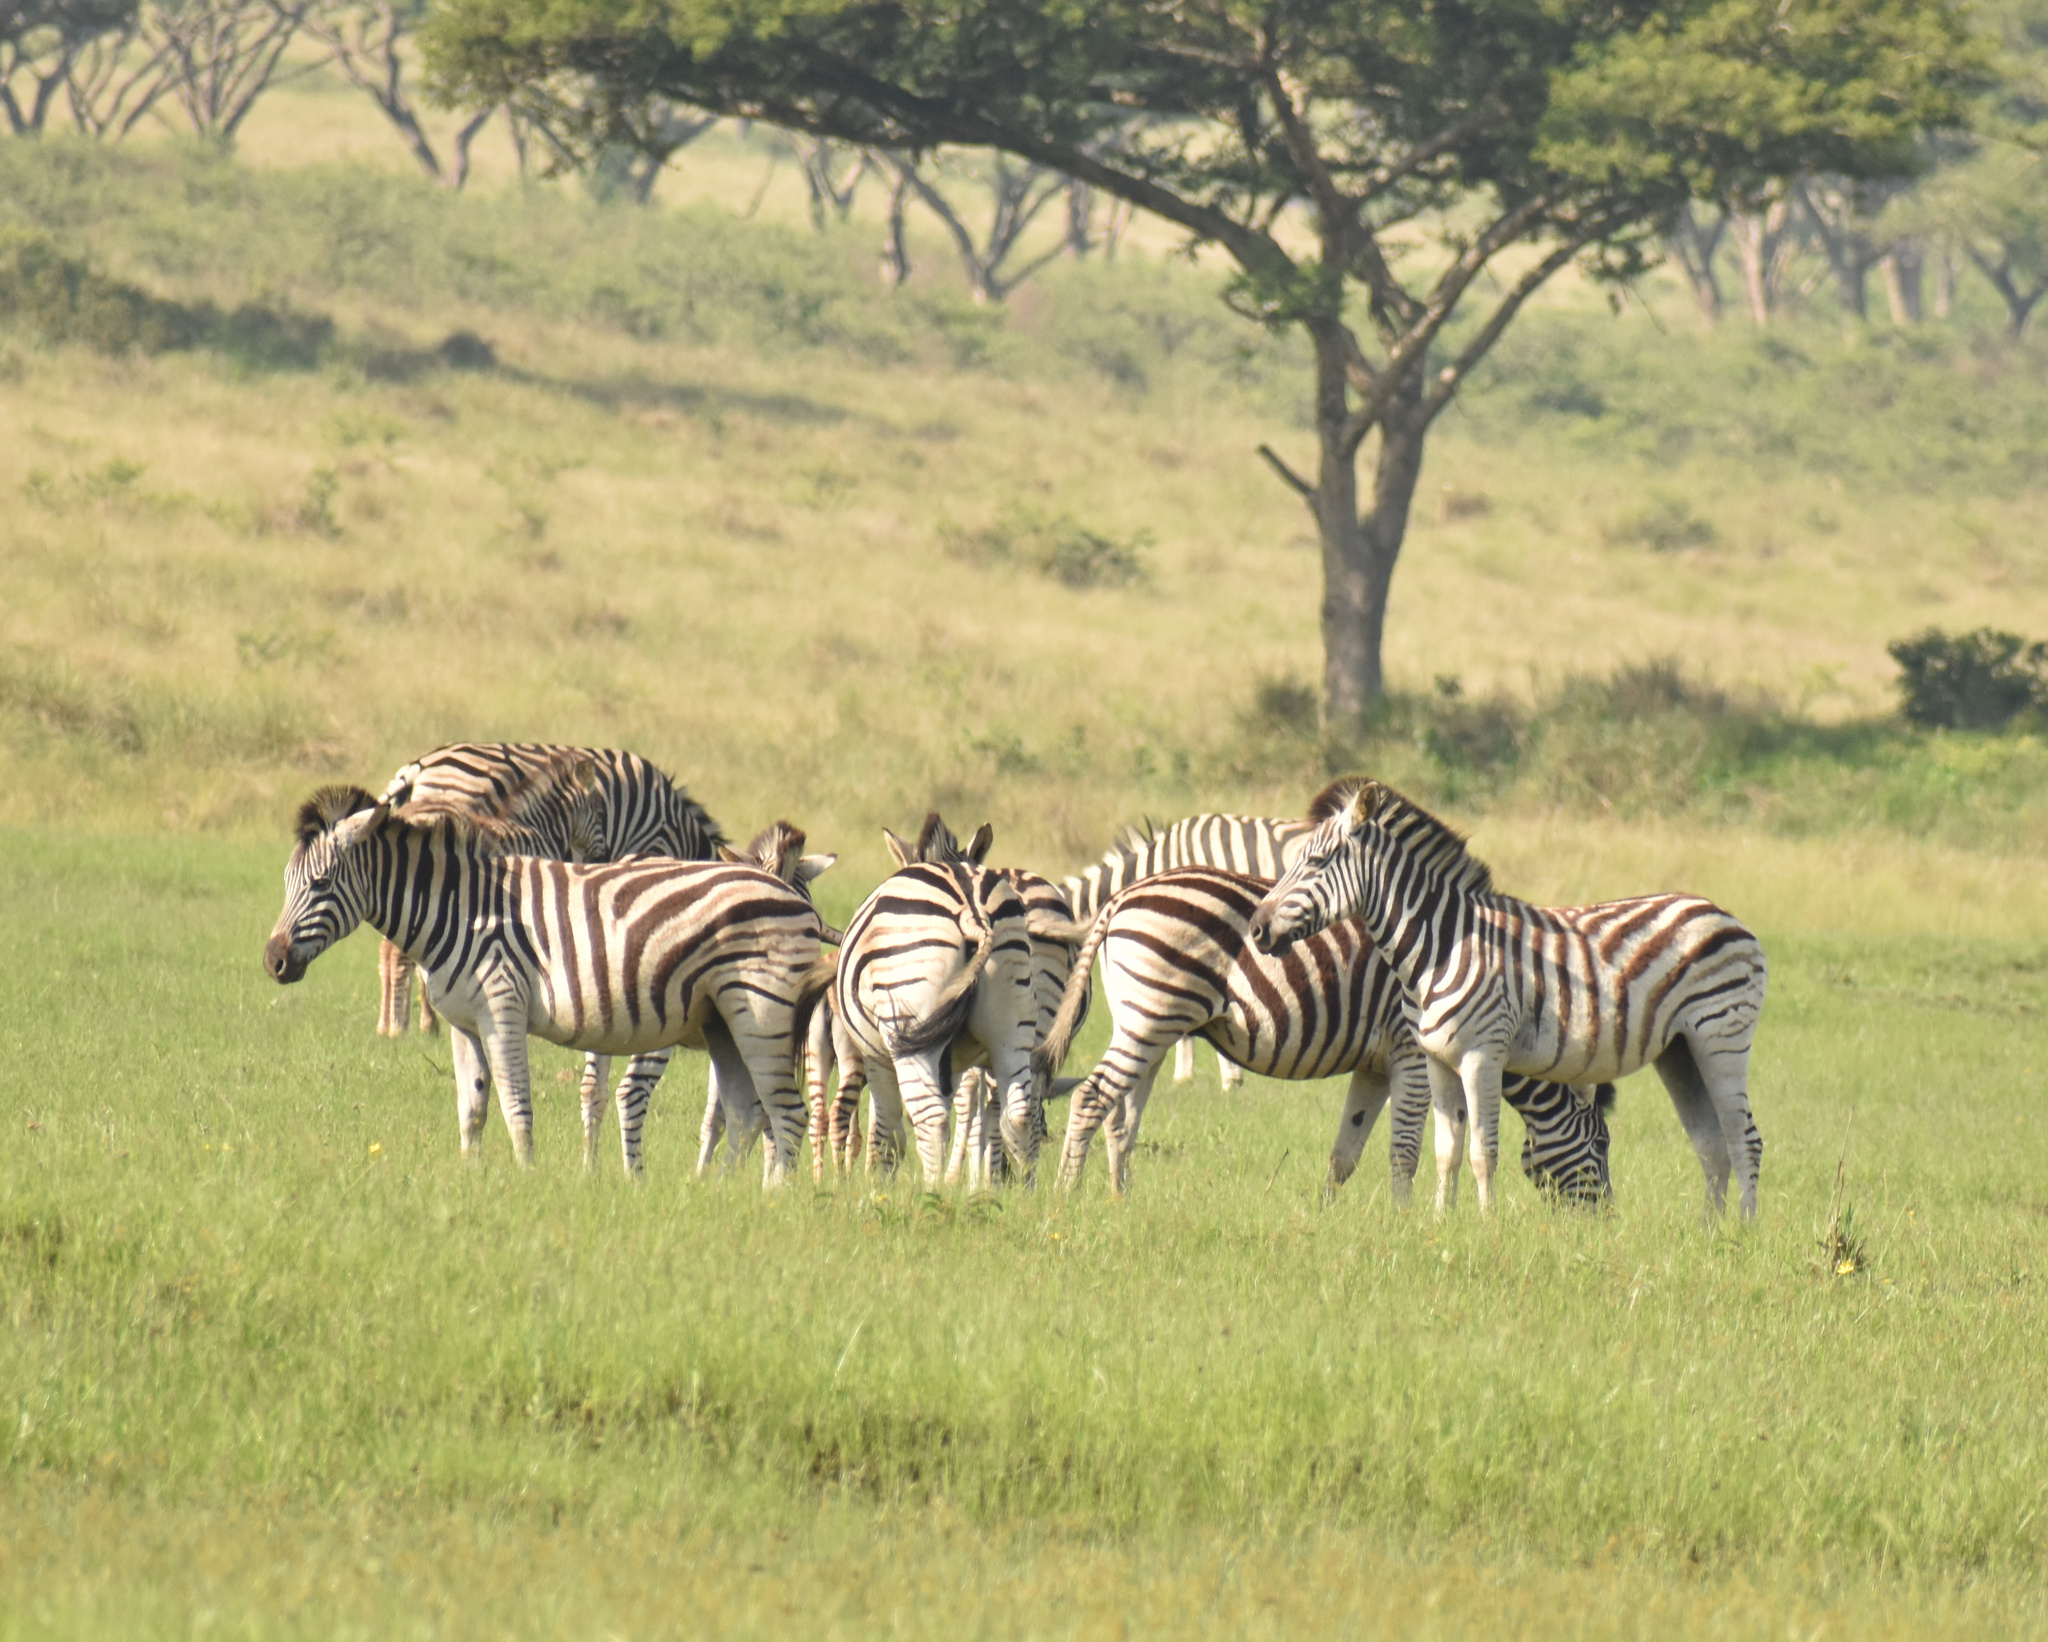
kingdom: Animalia
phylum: Chordata
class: Mammalia
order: Perissodactyla
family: Equidae
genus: Equus
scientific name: Equus quagga
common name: Plains zebra
